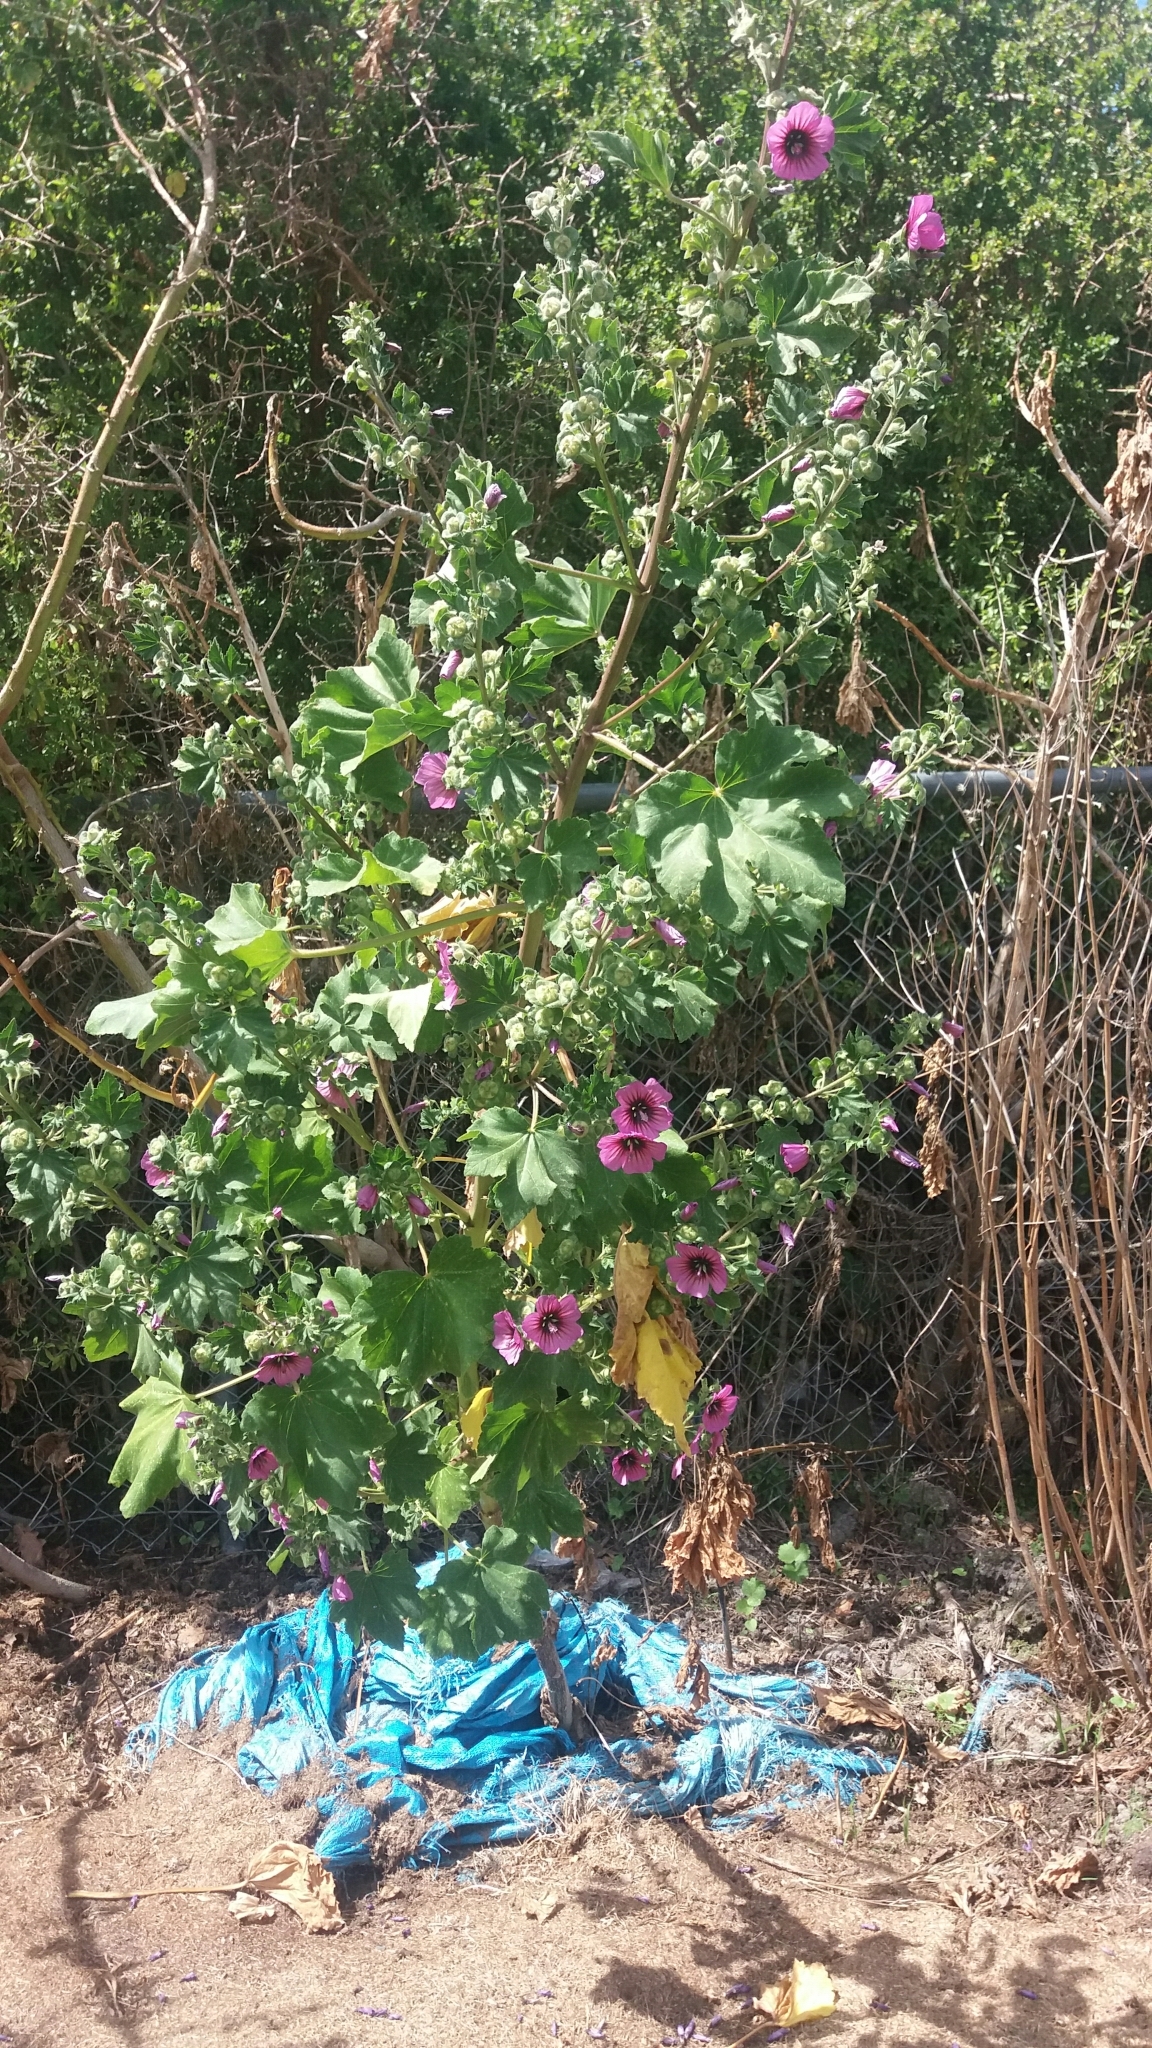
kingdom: Plantae
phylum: Tracheophyta
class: Magnoliopsida
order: Malvales
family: Malvaceae
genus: Malva
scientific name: Malva arborea
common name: Tree mallow
